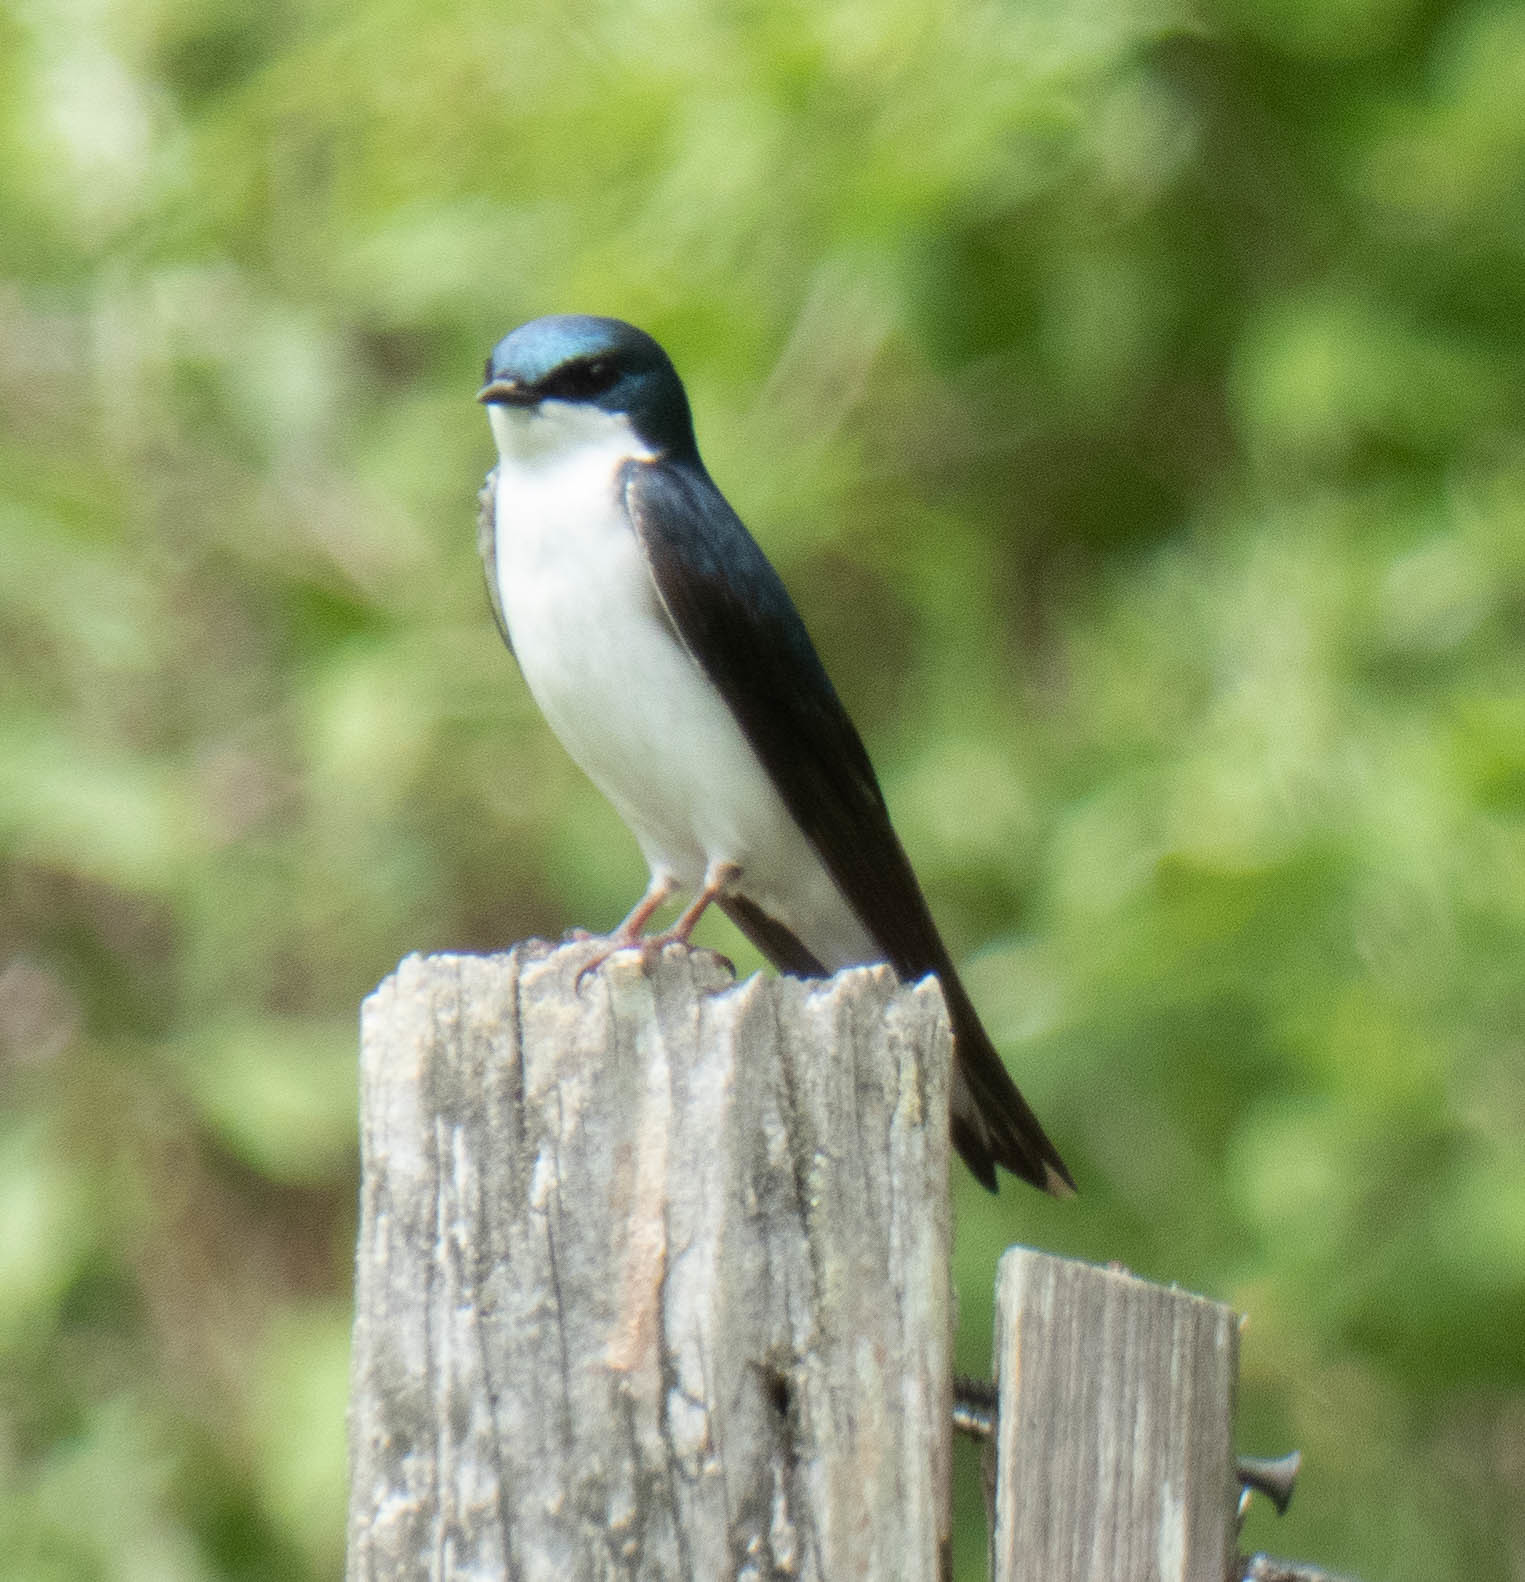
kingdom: Animalia
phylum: Chordata
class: Aves
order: Passeriformes
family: Hirundinidae
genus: Tachycineta
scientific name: Tachycineta bicolor
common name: Tree swallow
